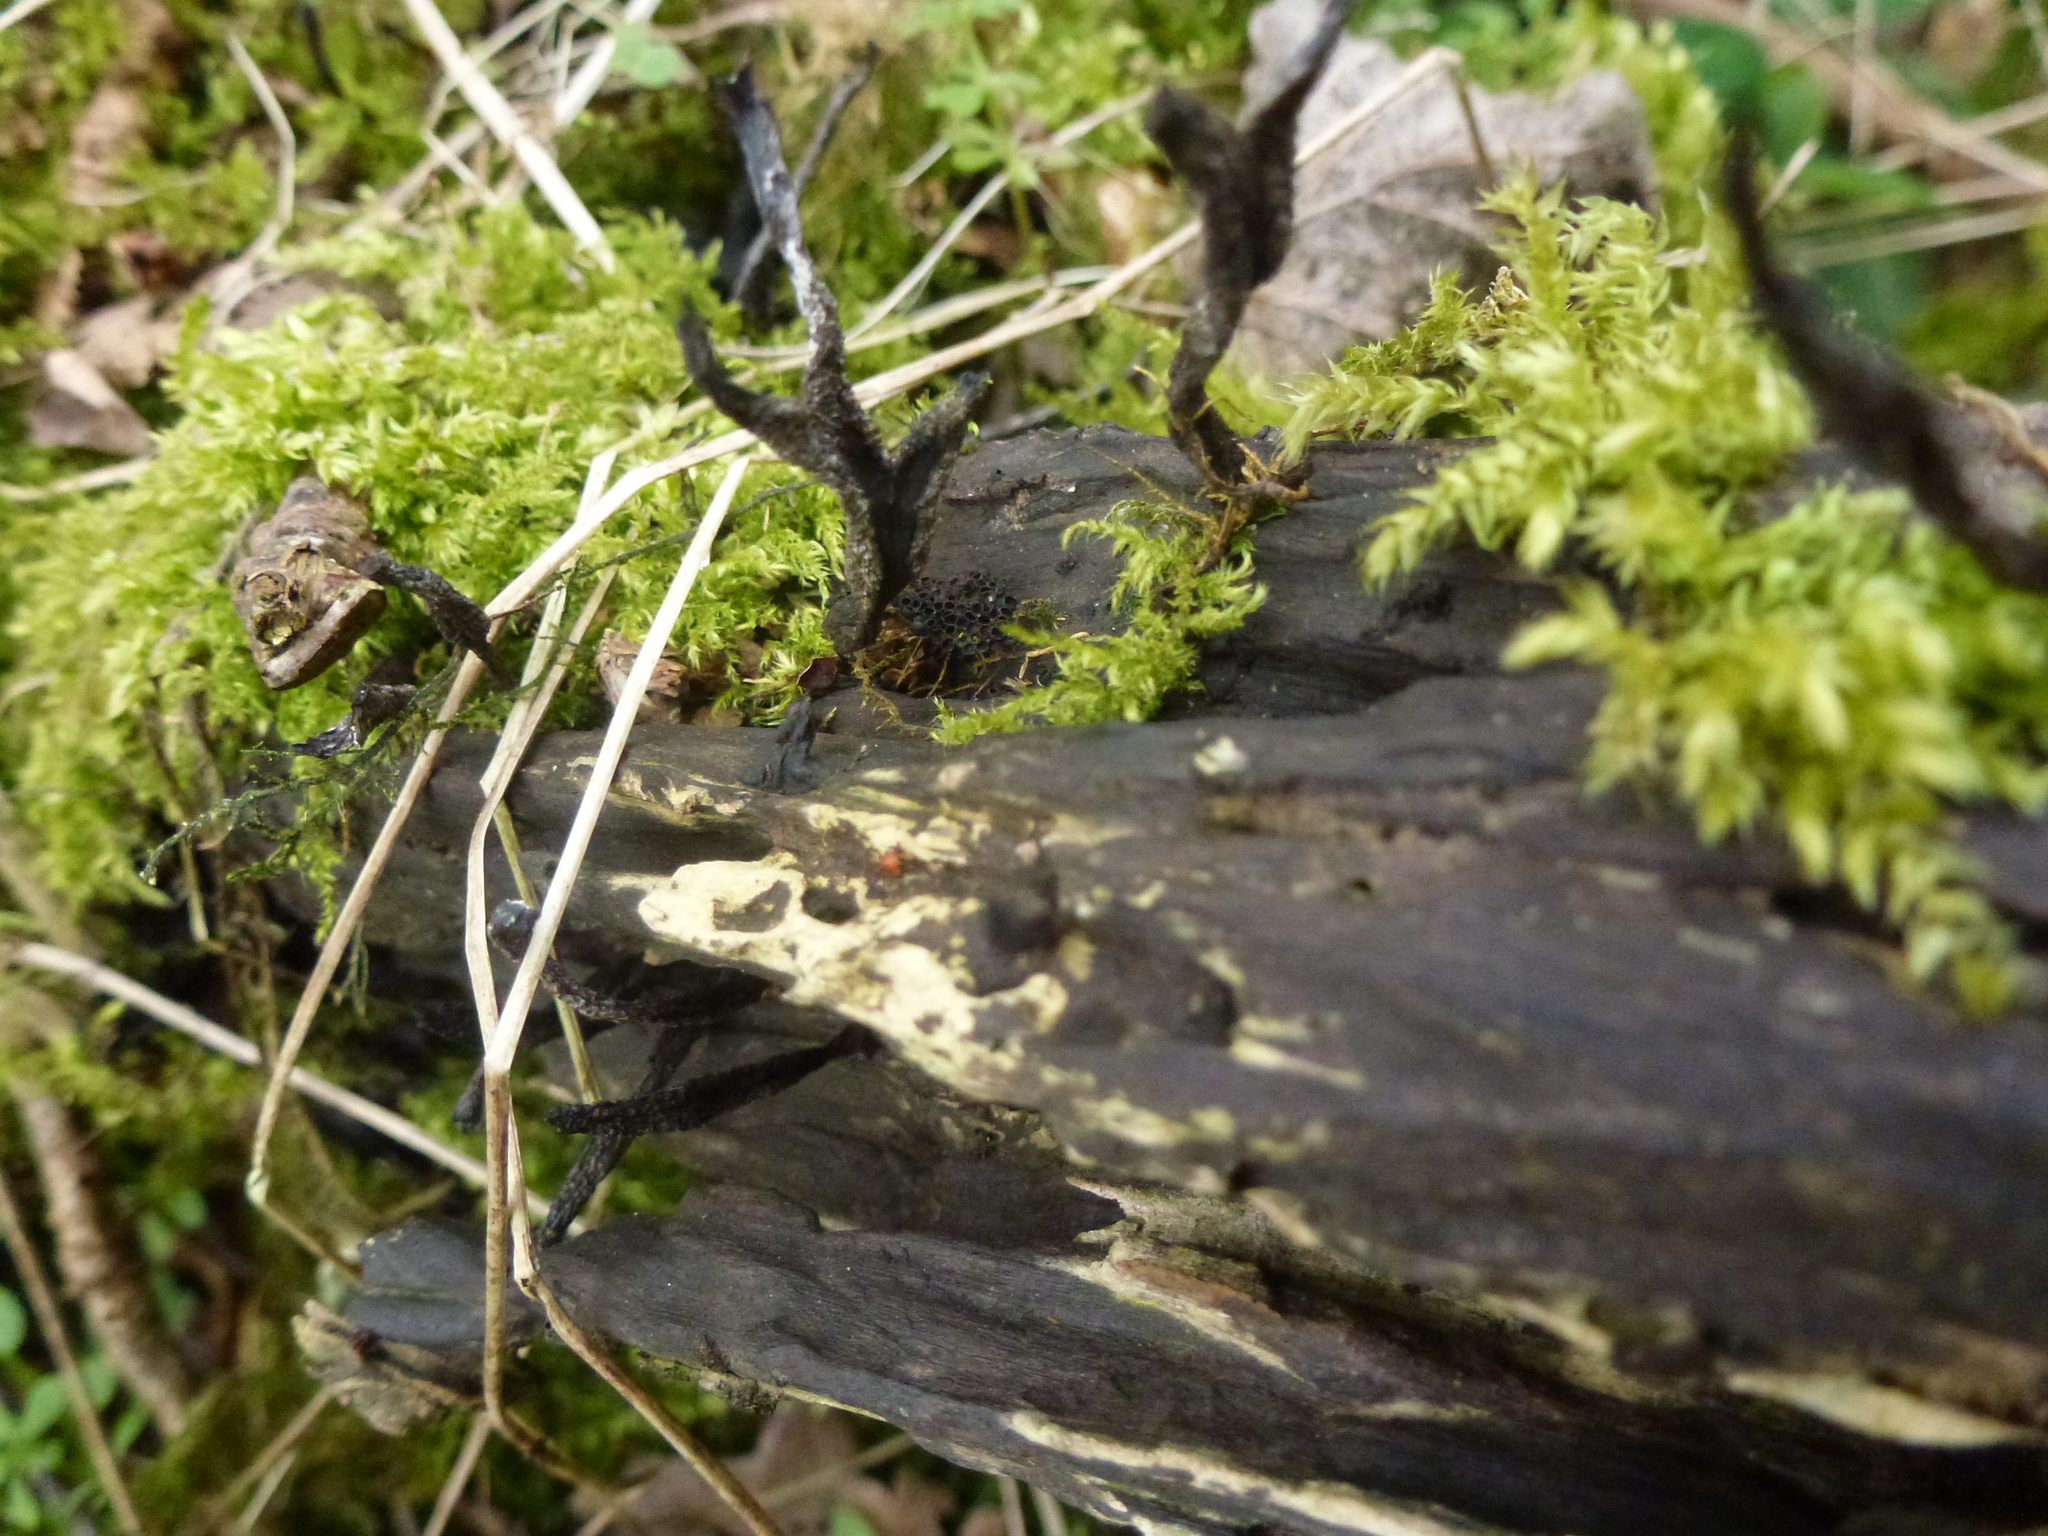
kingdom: Fungi
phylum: Ascomycota
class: Sordariomycetes
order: Xylariales
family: Xylariaceae
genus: Xylaria
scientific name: Xylaria hypoxylon
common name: Candle-snuff fungus
